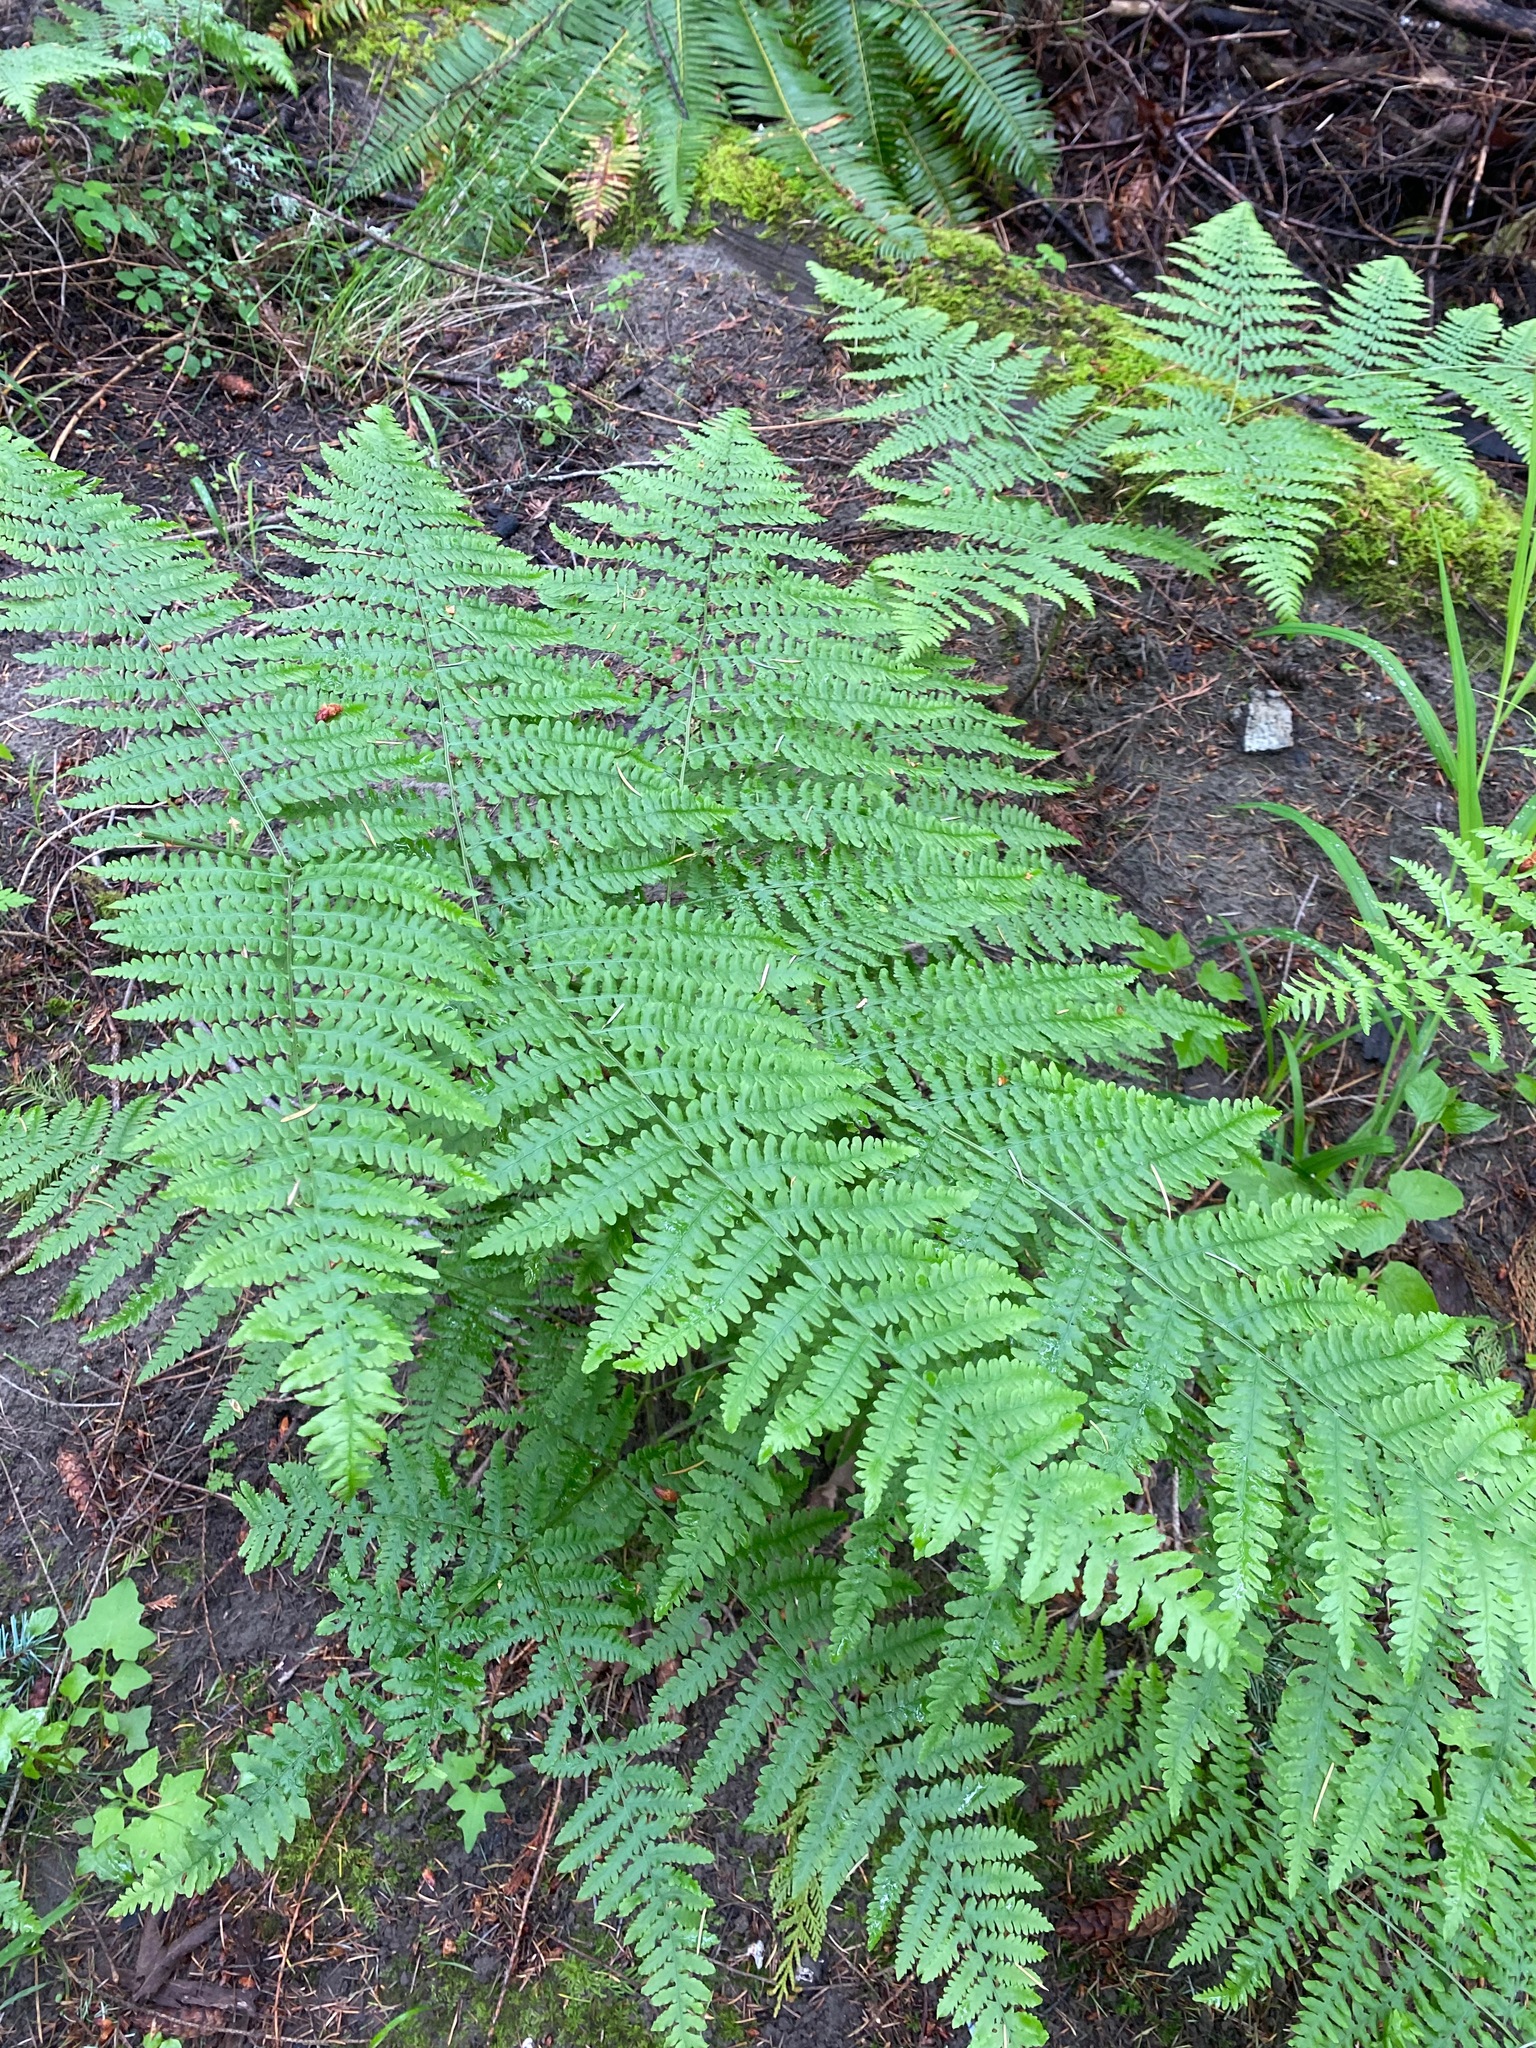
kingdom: Plantae
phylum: Tracheophyta
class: Polypodiopsida
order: Polypodiales
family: Dennstaedtiaceae
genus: Pteridium
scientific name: Pteridium aquilinum
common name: Bracken
